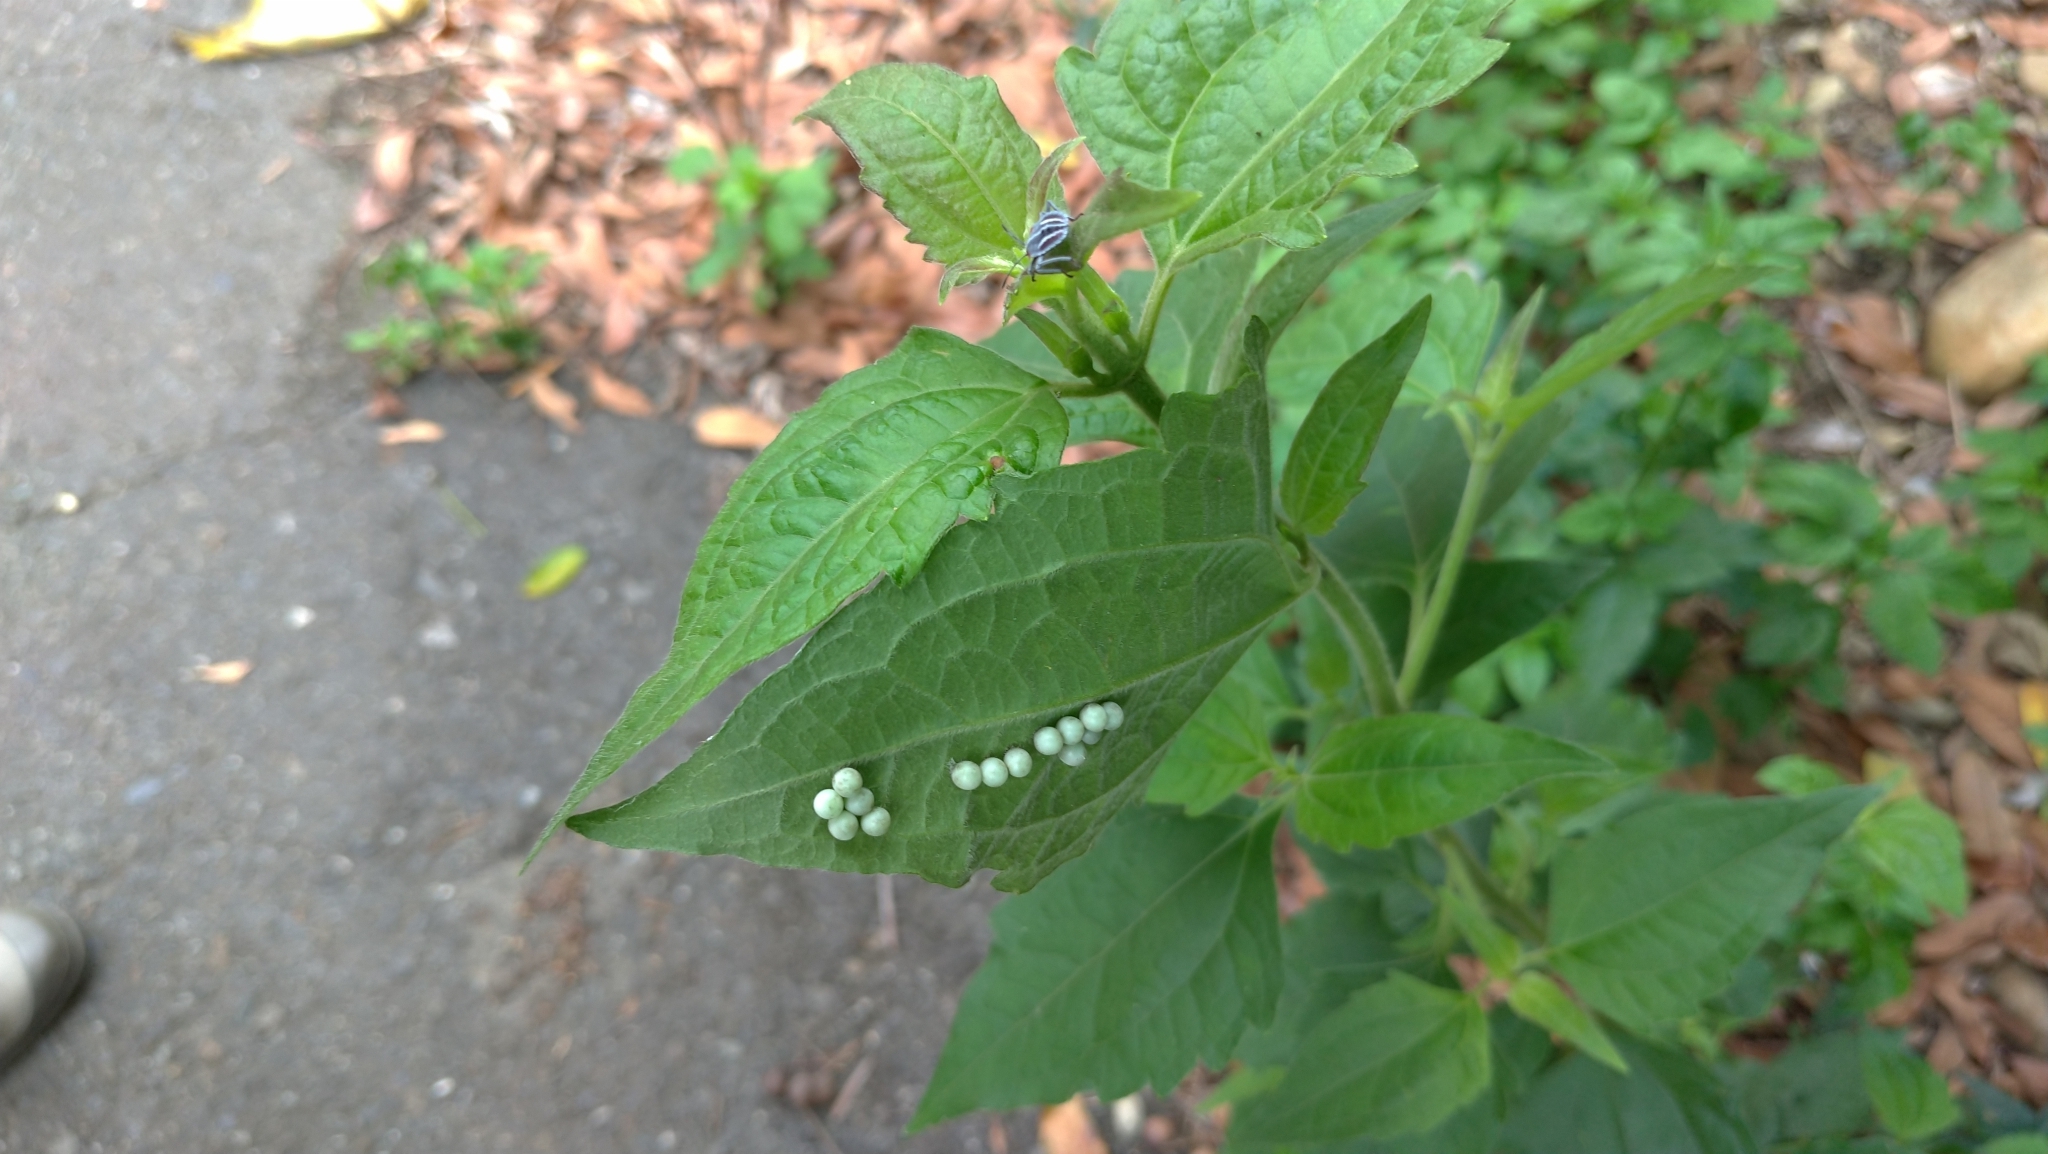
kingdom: Animalia
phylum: Arthropoda
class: Insecta
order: Hemiptera
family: Tessaratomidae
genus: Tessaratoma
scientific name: Tessaratoma papillosa
